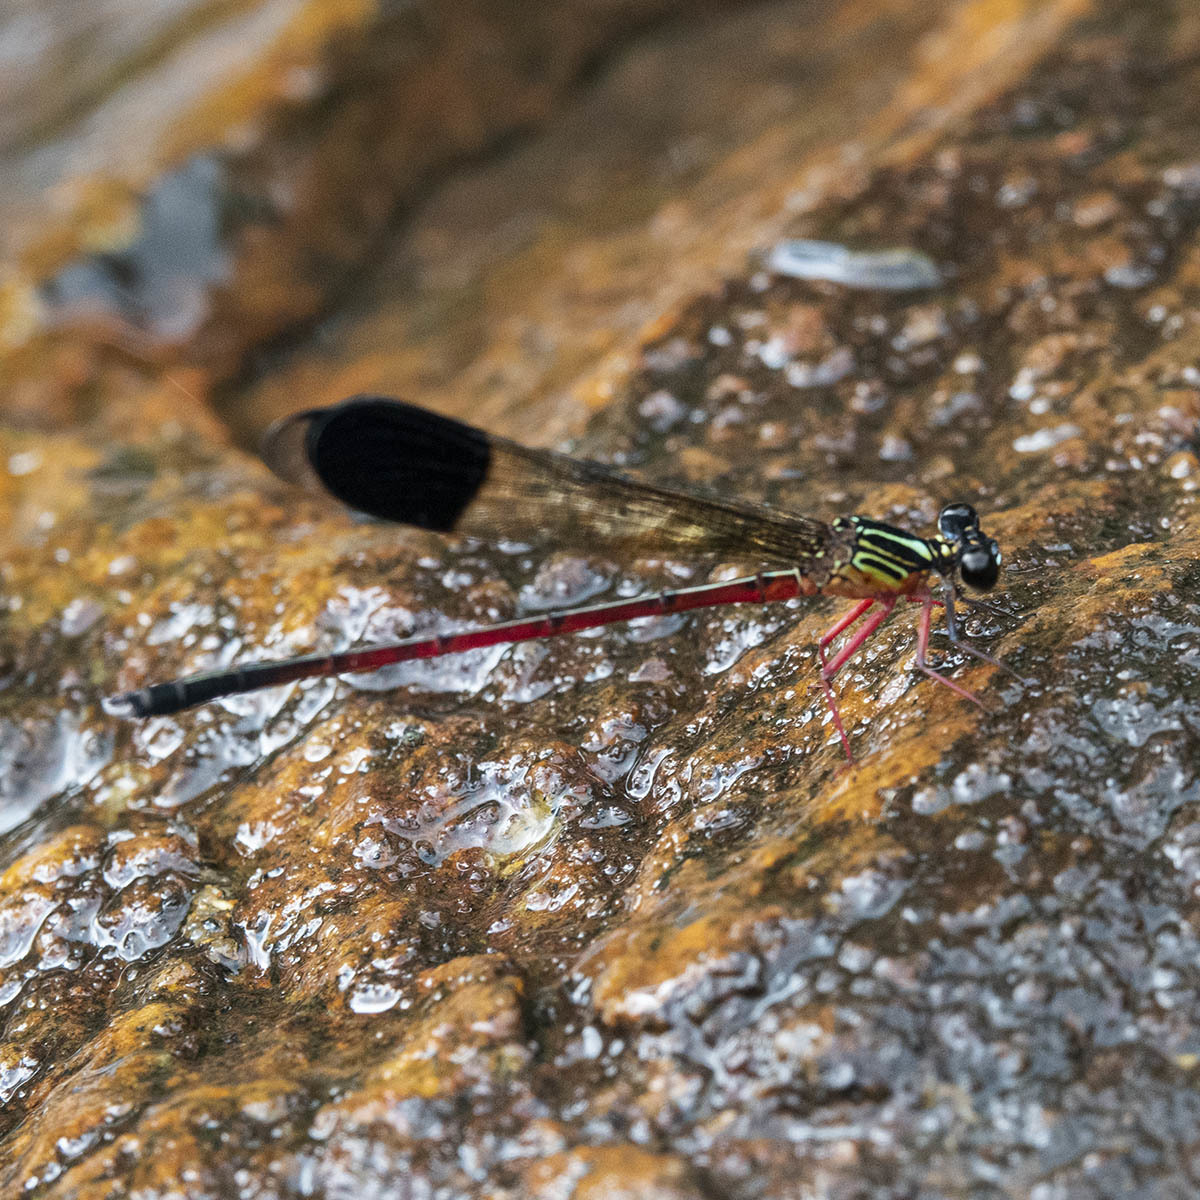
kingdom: Animalia
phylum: Arthropoda
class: Insecta
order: Odonata
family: Euphaeidae
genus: Euphaea
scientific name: Euphaea fraseri
